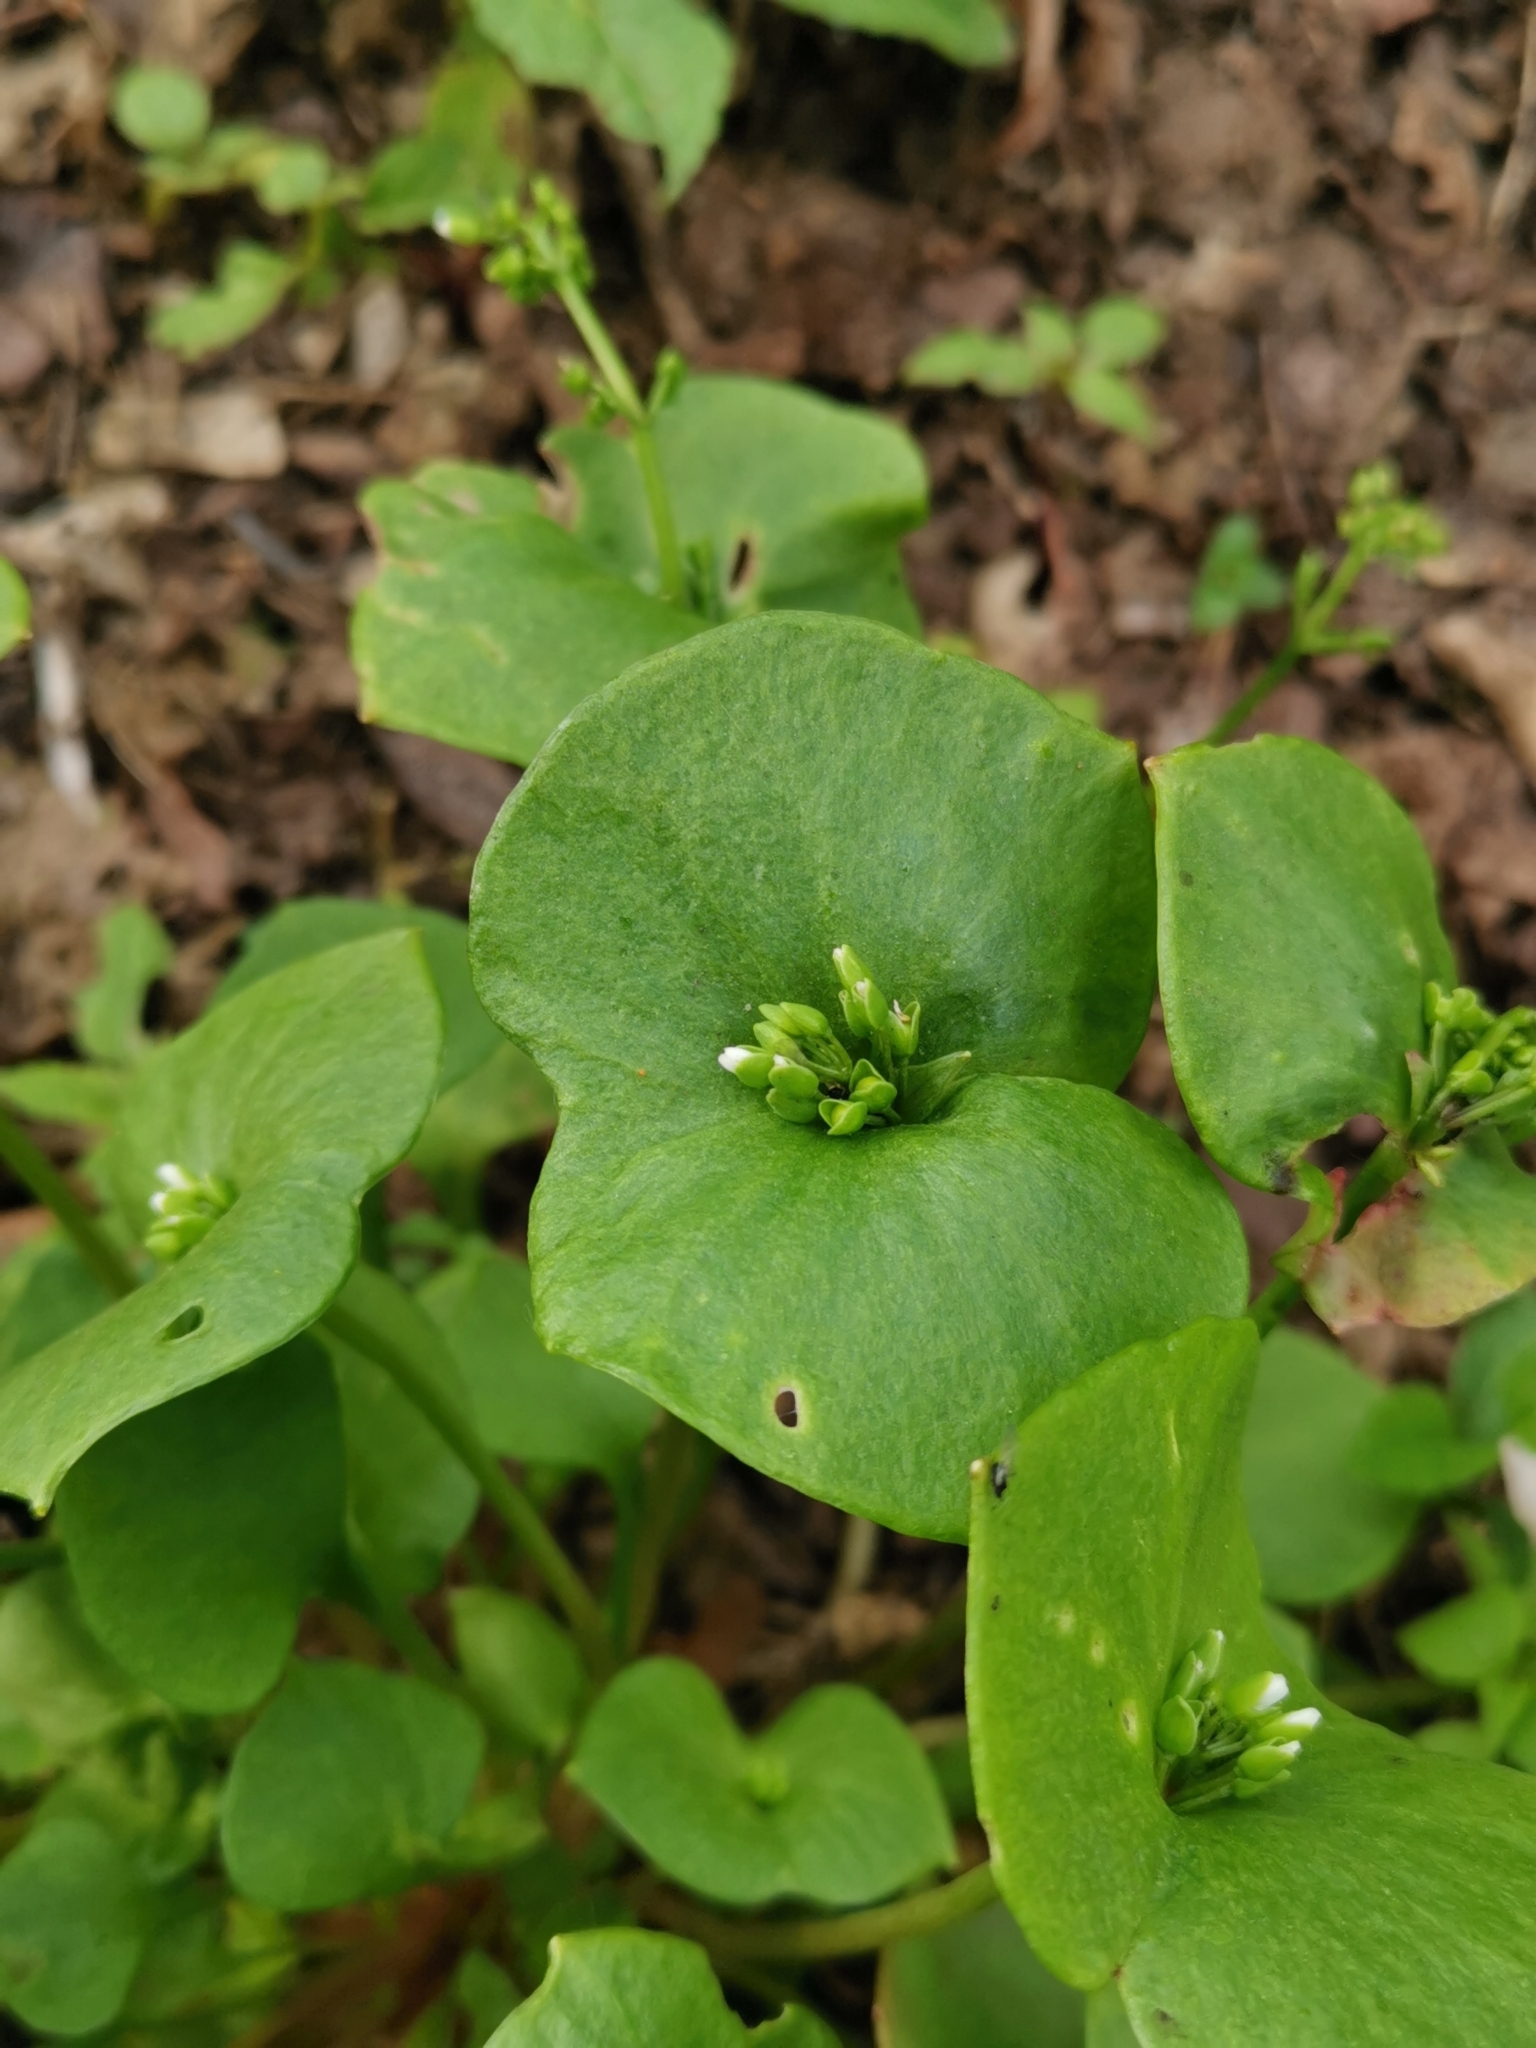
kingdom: Plantae
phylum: Tracheophyta
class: Magnoliopsida
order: Caryophyllales
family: Montiaceae
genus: Claytonia
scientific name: Claytonia perfoliata
